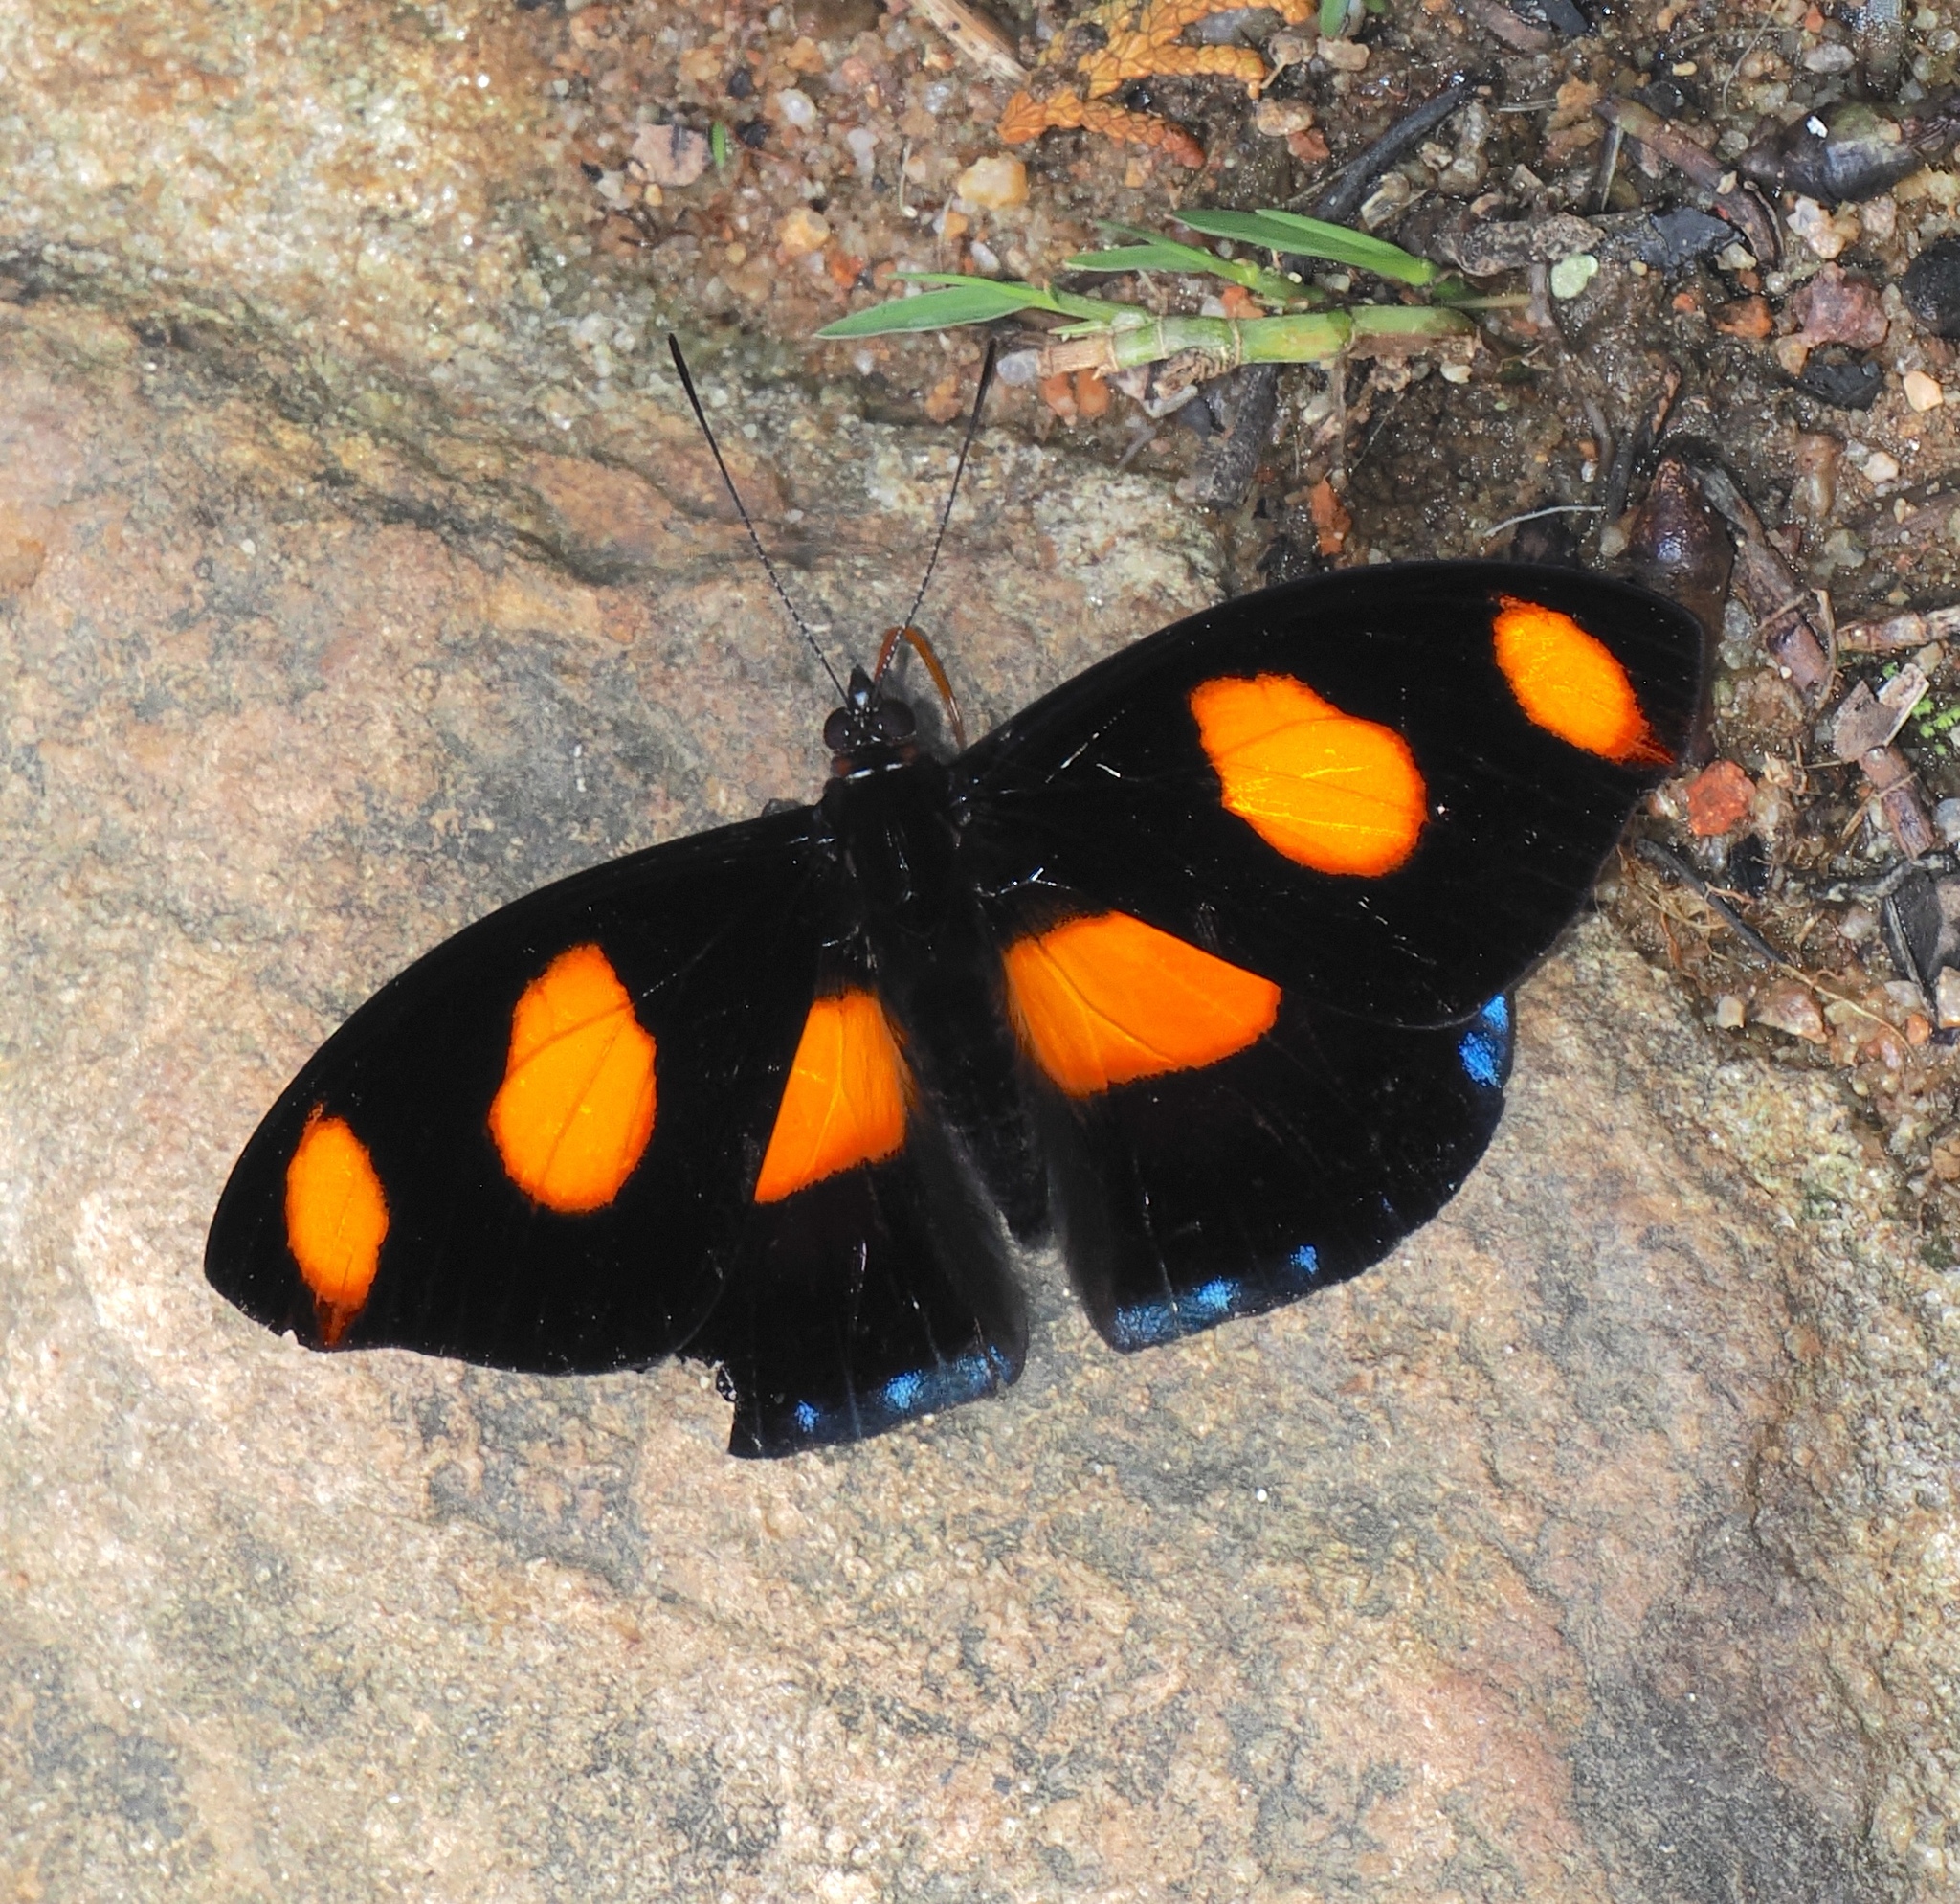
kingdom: Animalia
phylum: Arthropoda
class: Insecta
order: Lepidoptera
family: Nymphalidae
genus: Catonephele
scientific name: Catonephele numilia
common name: Blue-frosted banner
